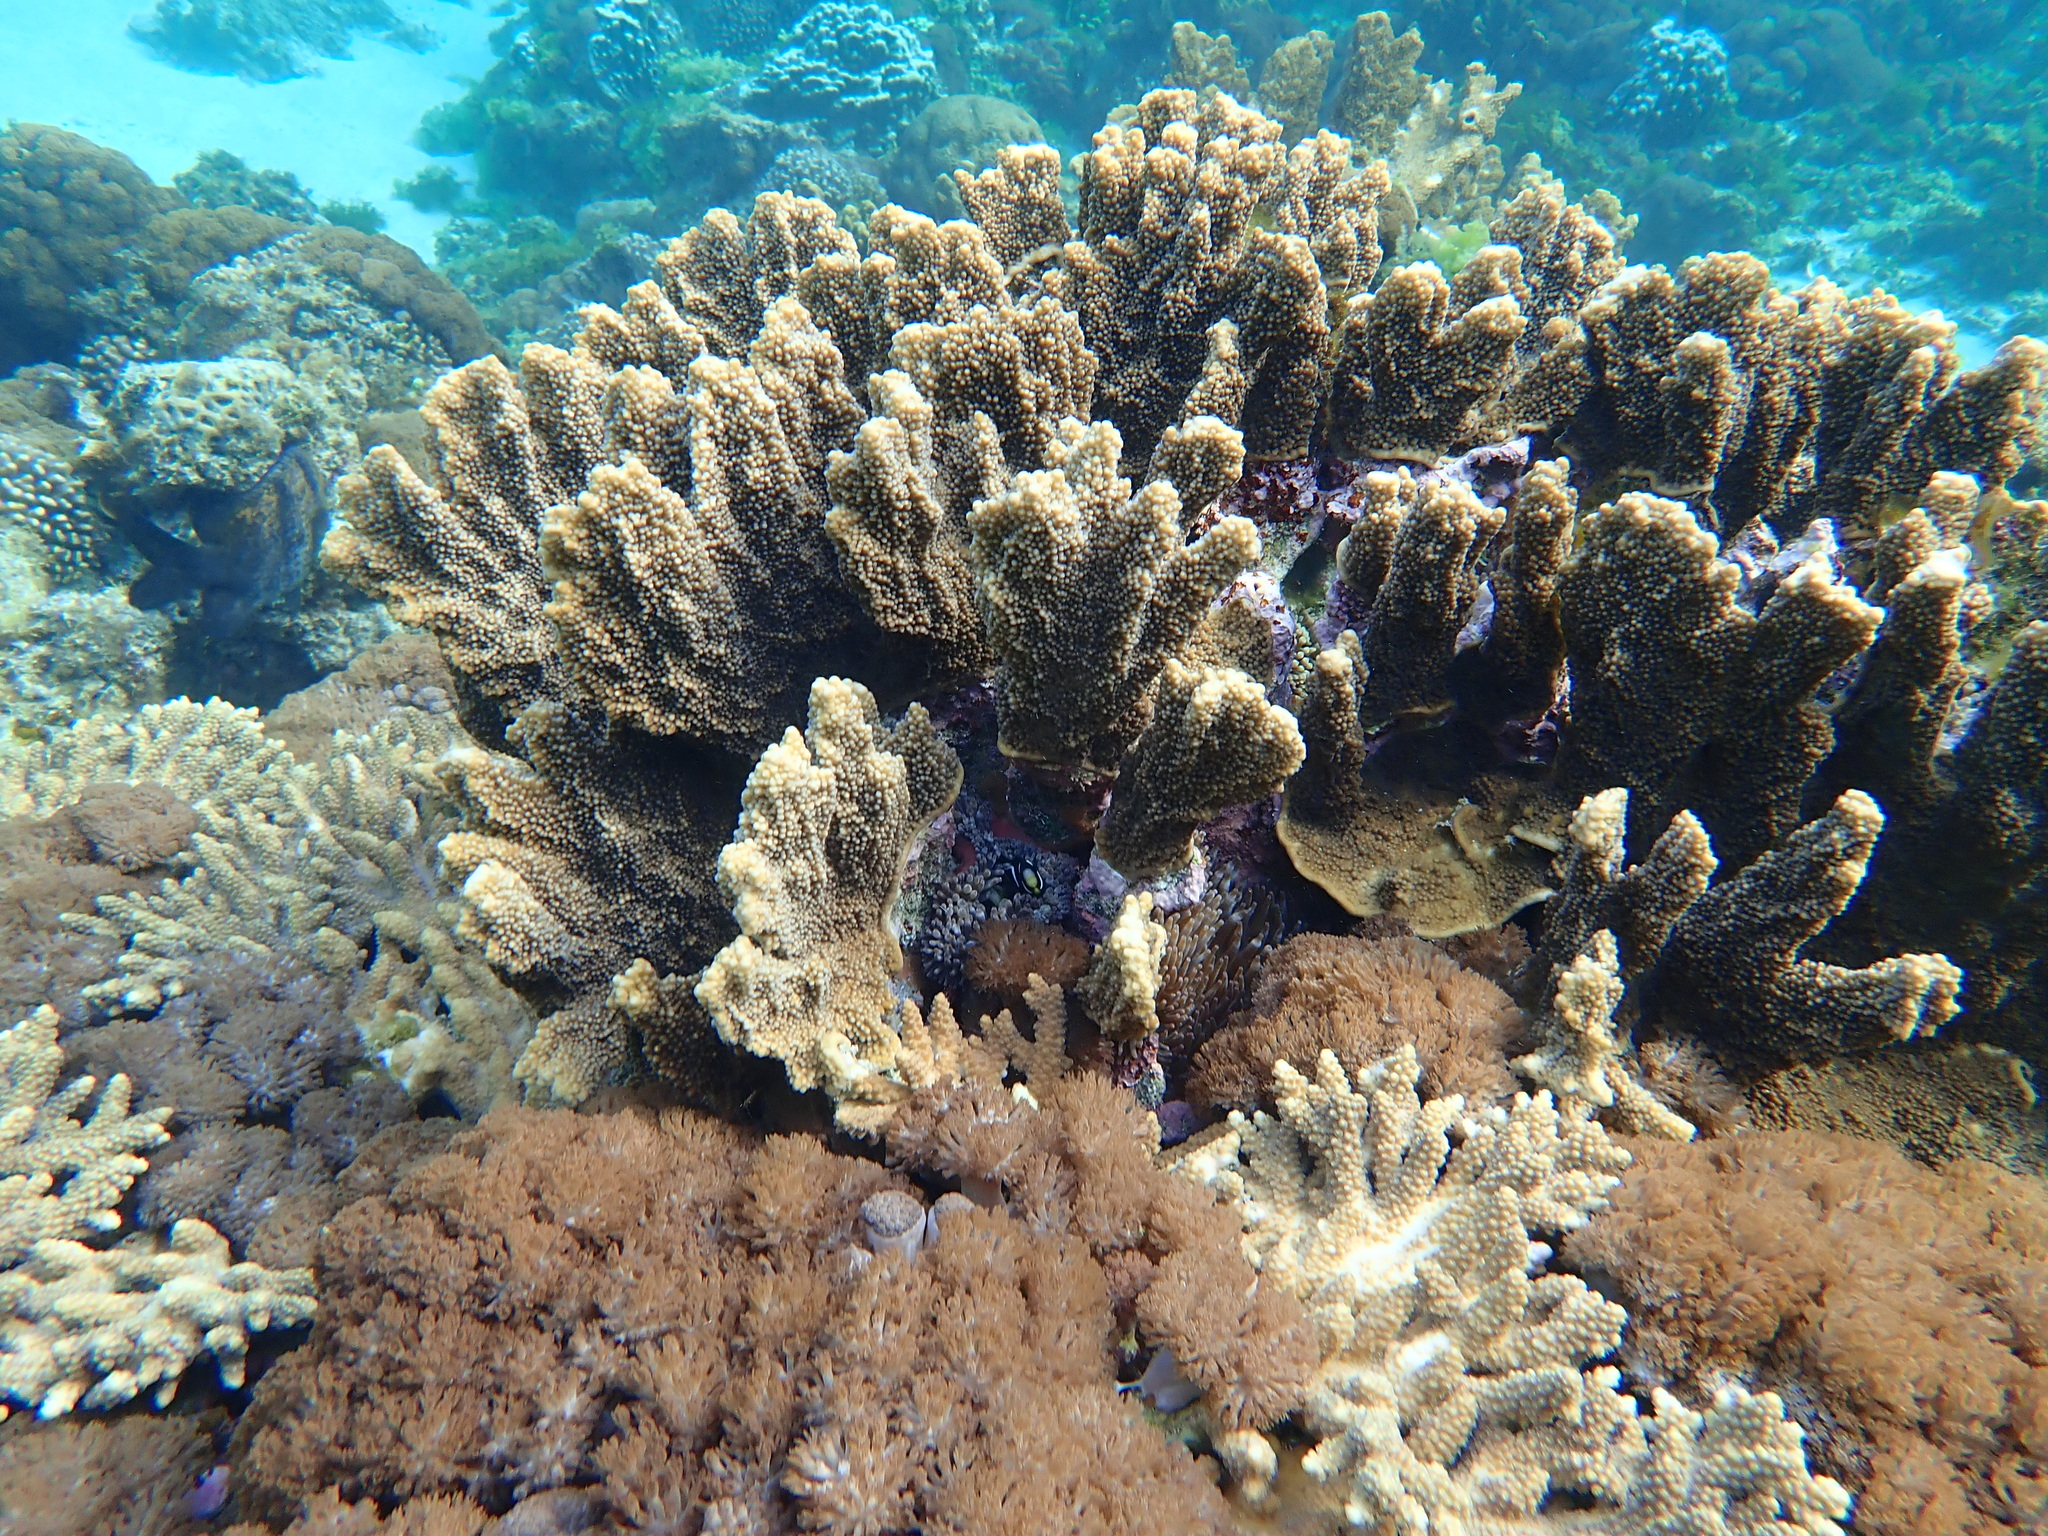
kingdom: Animalia
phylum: Chordata
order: Perciformes
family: Pomacentridae
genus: Parma
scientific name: Parma polylepis
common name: Banded parma
